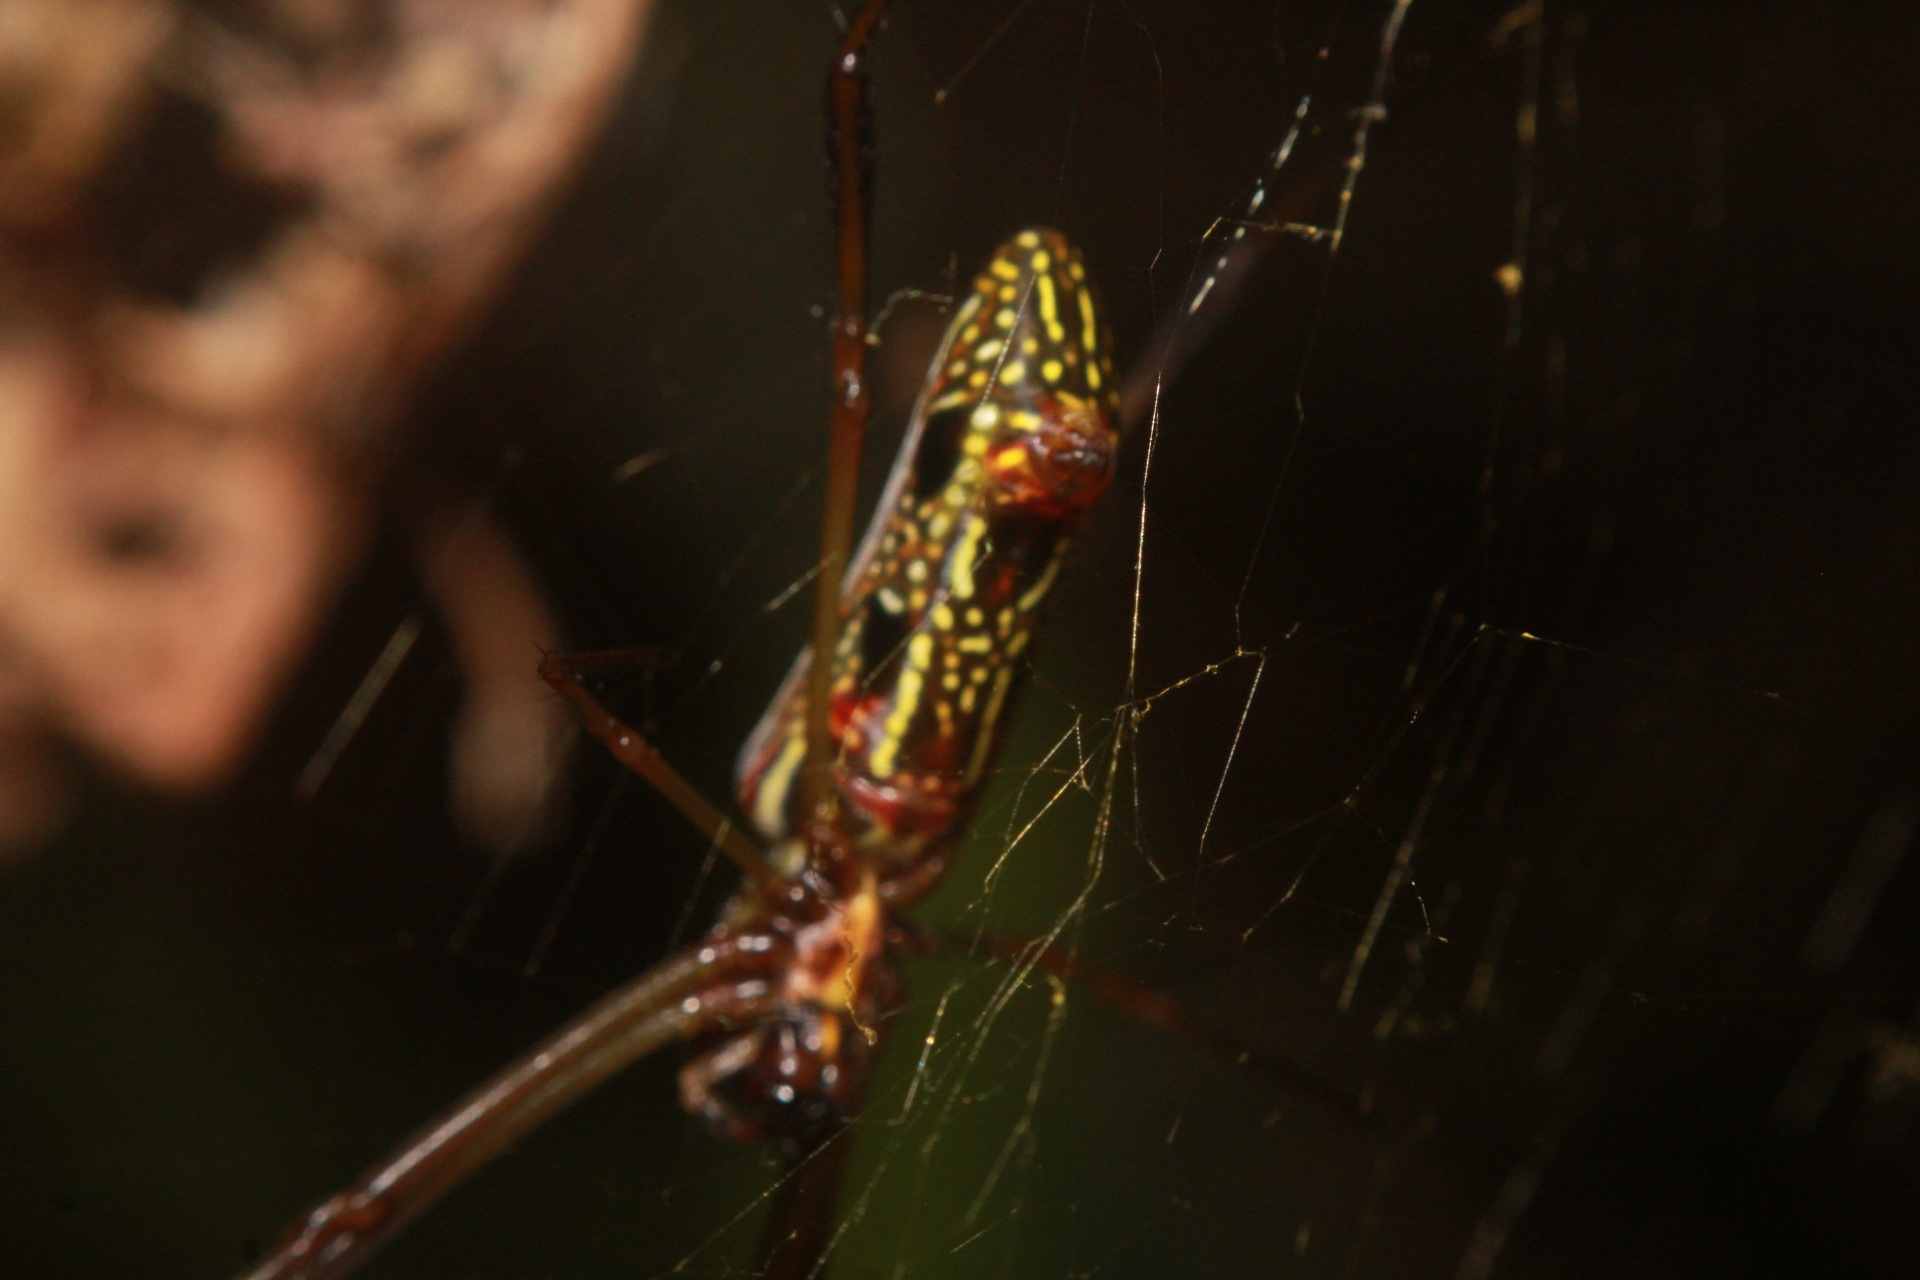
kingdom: Animalia
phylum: Arthropoda
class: Arachnida
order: Araneae
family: Araneidae
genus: Trichonephila
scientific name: Trichonephila clavipes
